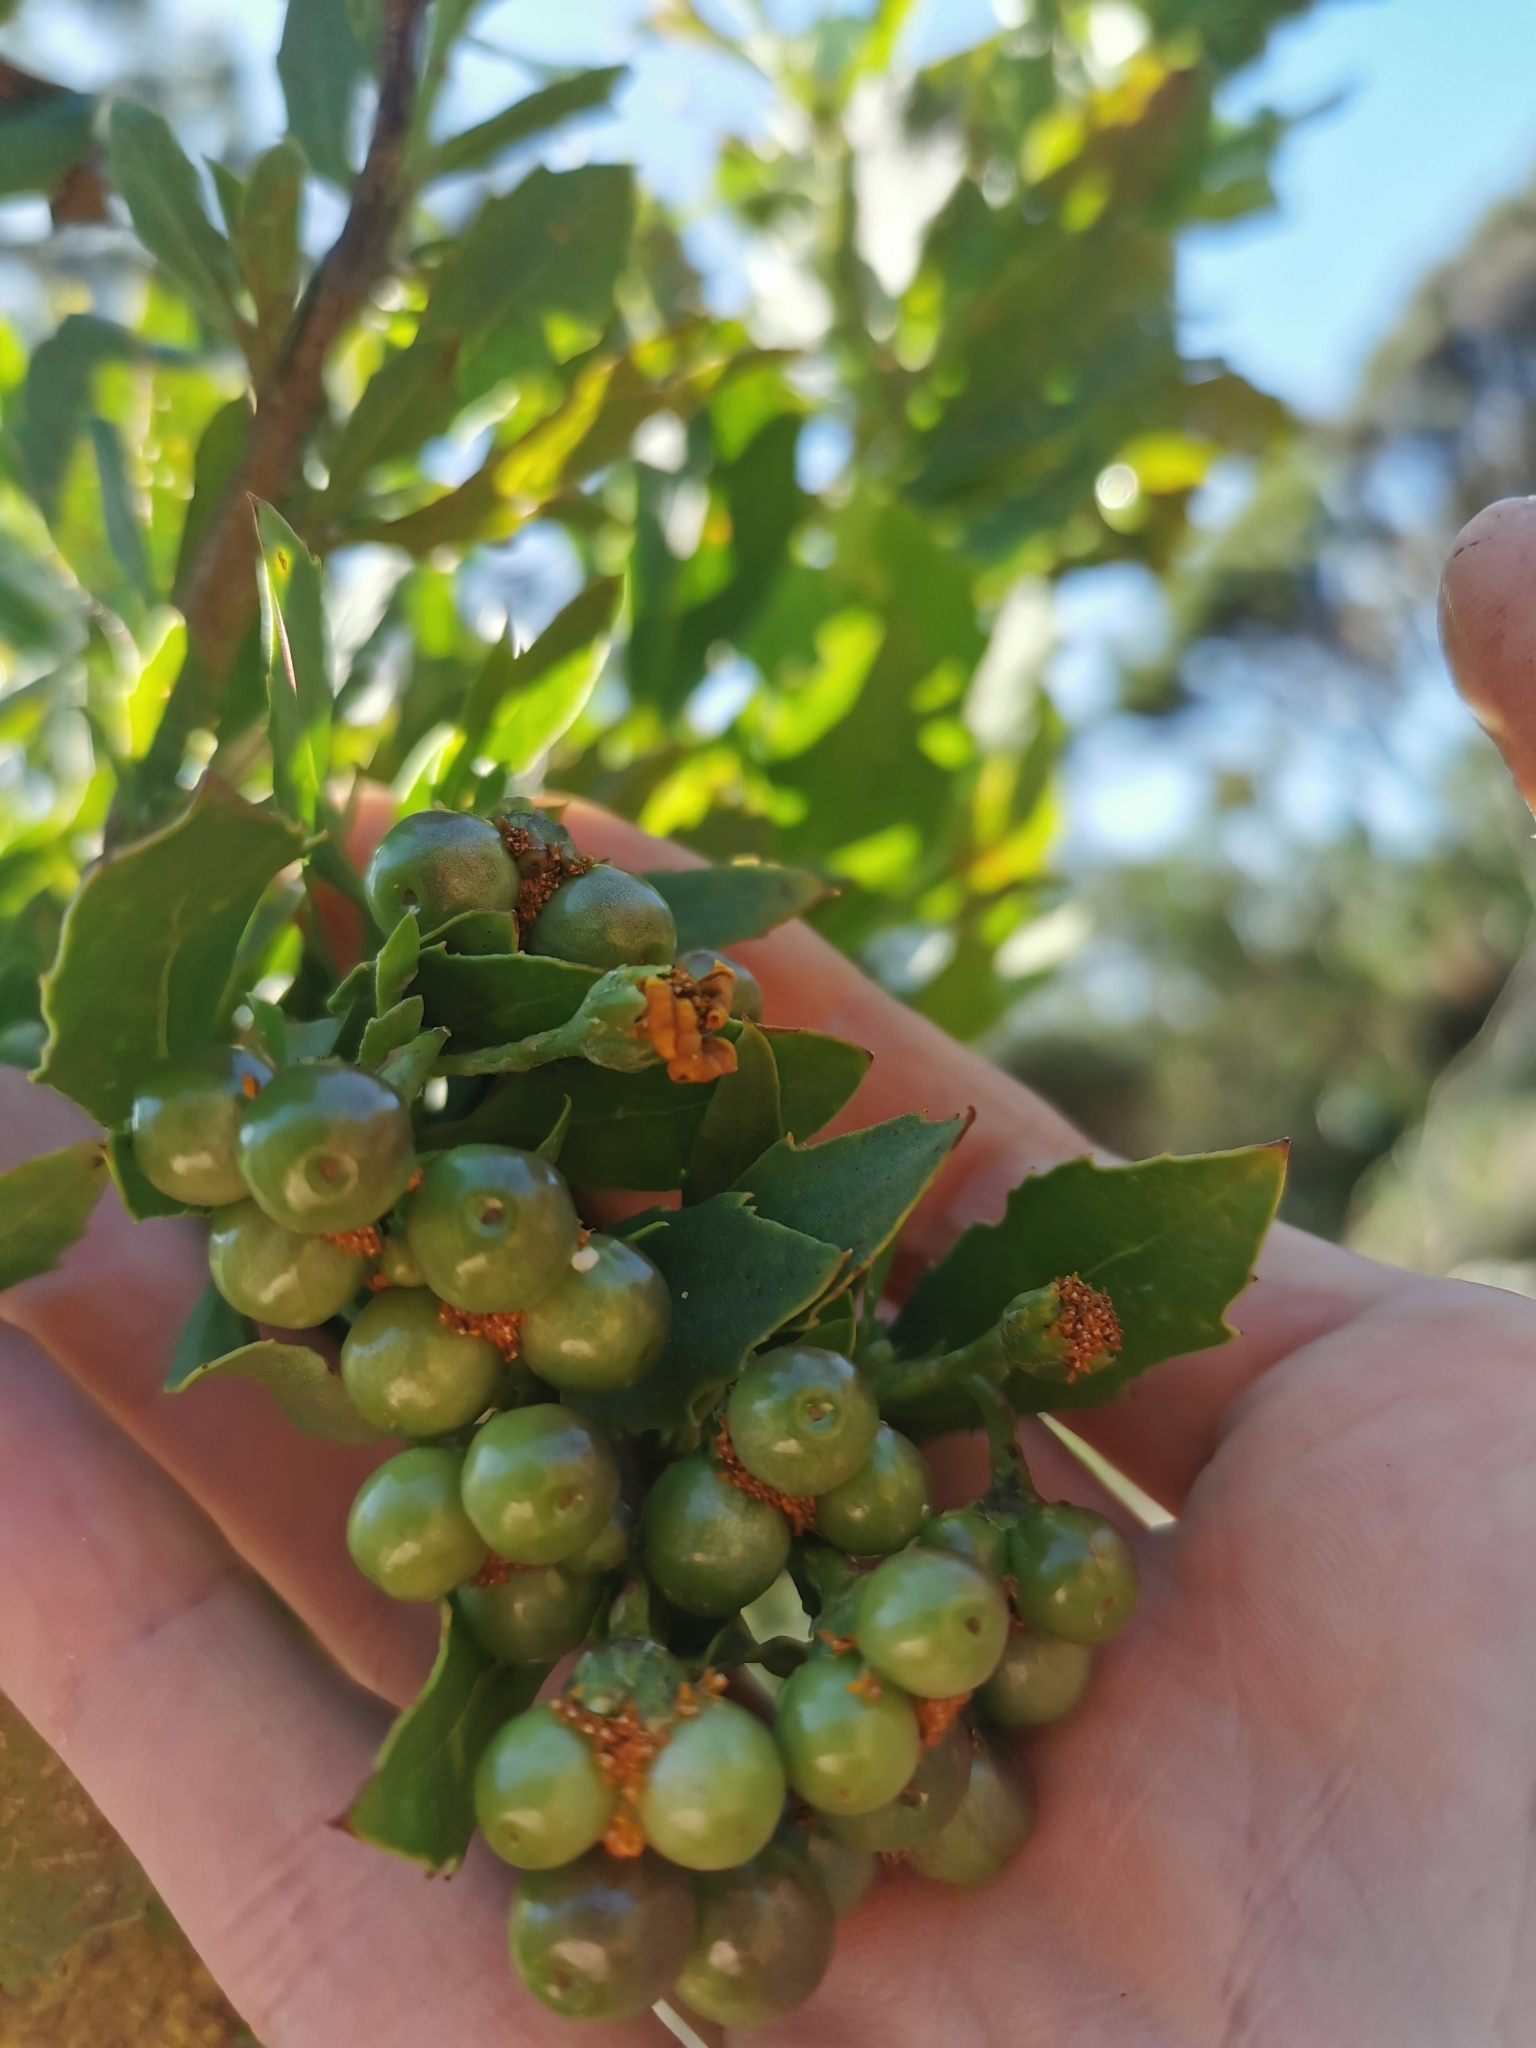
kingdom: Plantae
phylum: Tracheophyta
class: Magnoliopsida
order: Asterales
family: Asteraceae
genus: Osteospermum
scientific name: Osteospermum moniliferum
